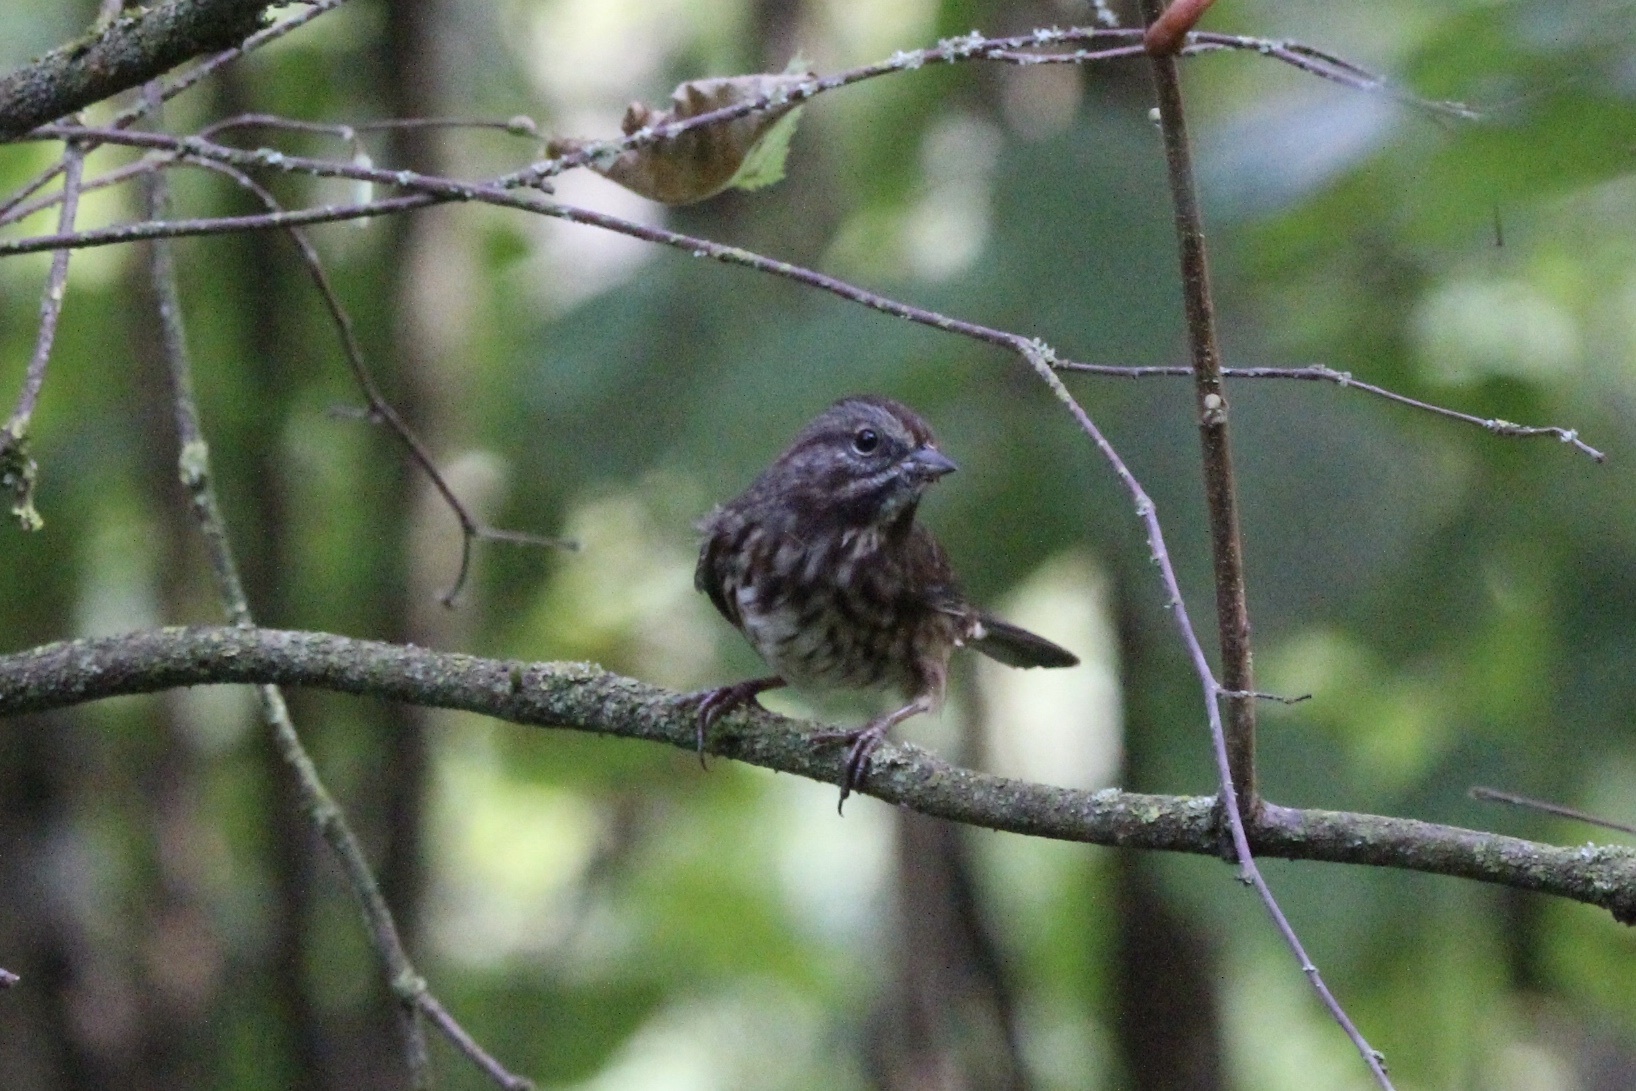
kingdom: Animalia
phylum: Chordata
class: Aves
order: Passeriformes
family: Passerellidae
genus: Melospiza
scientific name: Melospiza melodia
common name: Song sparrow
